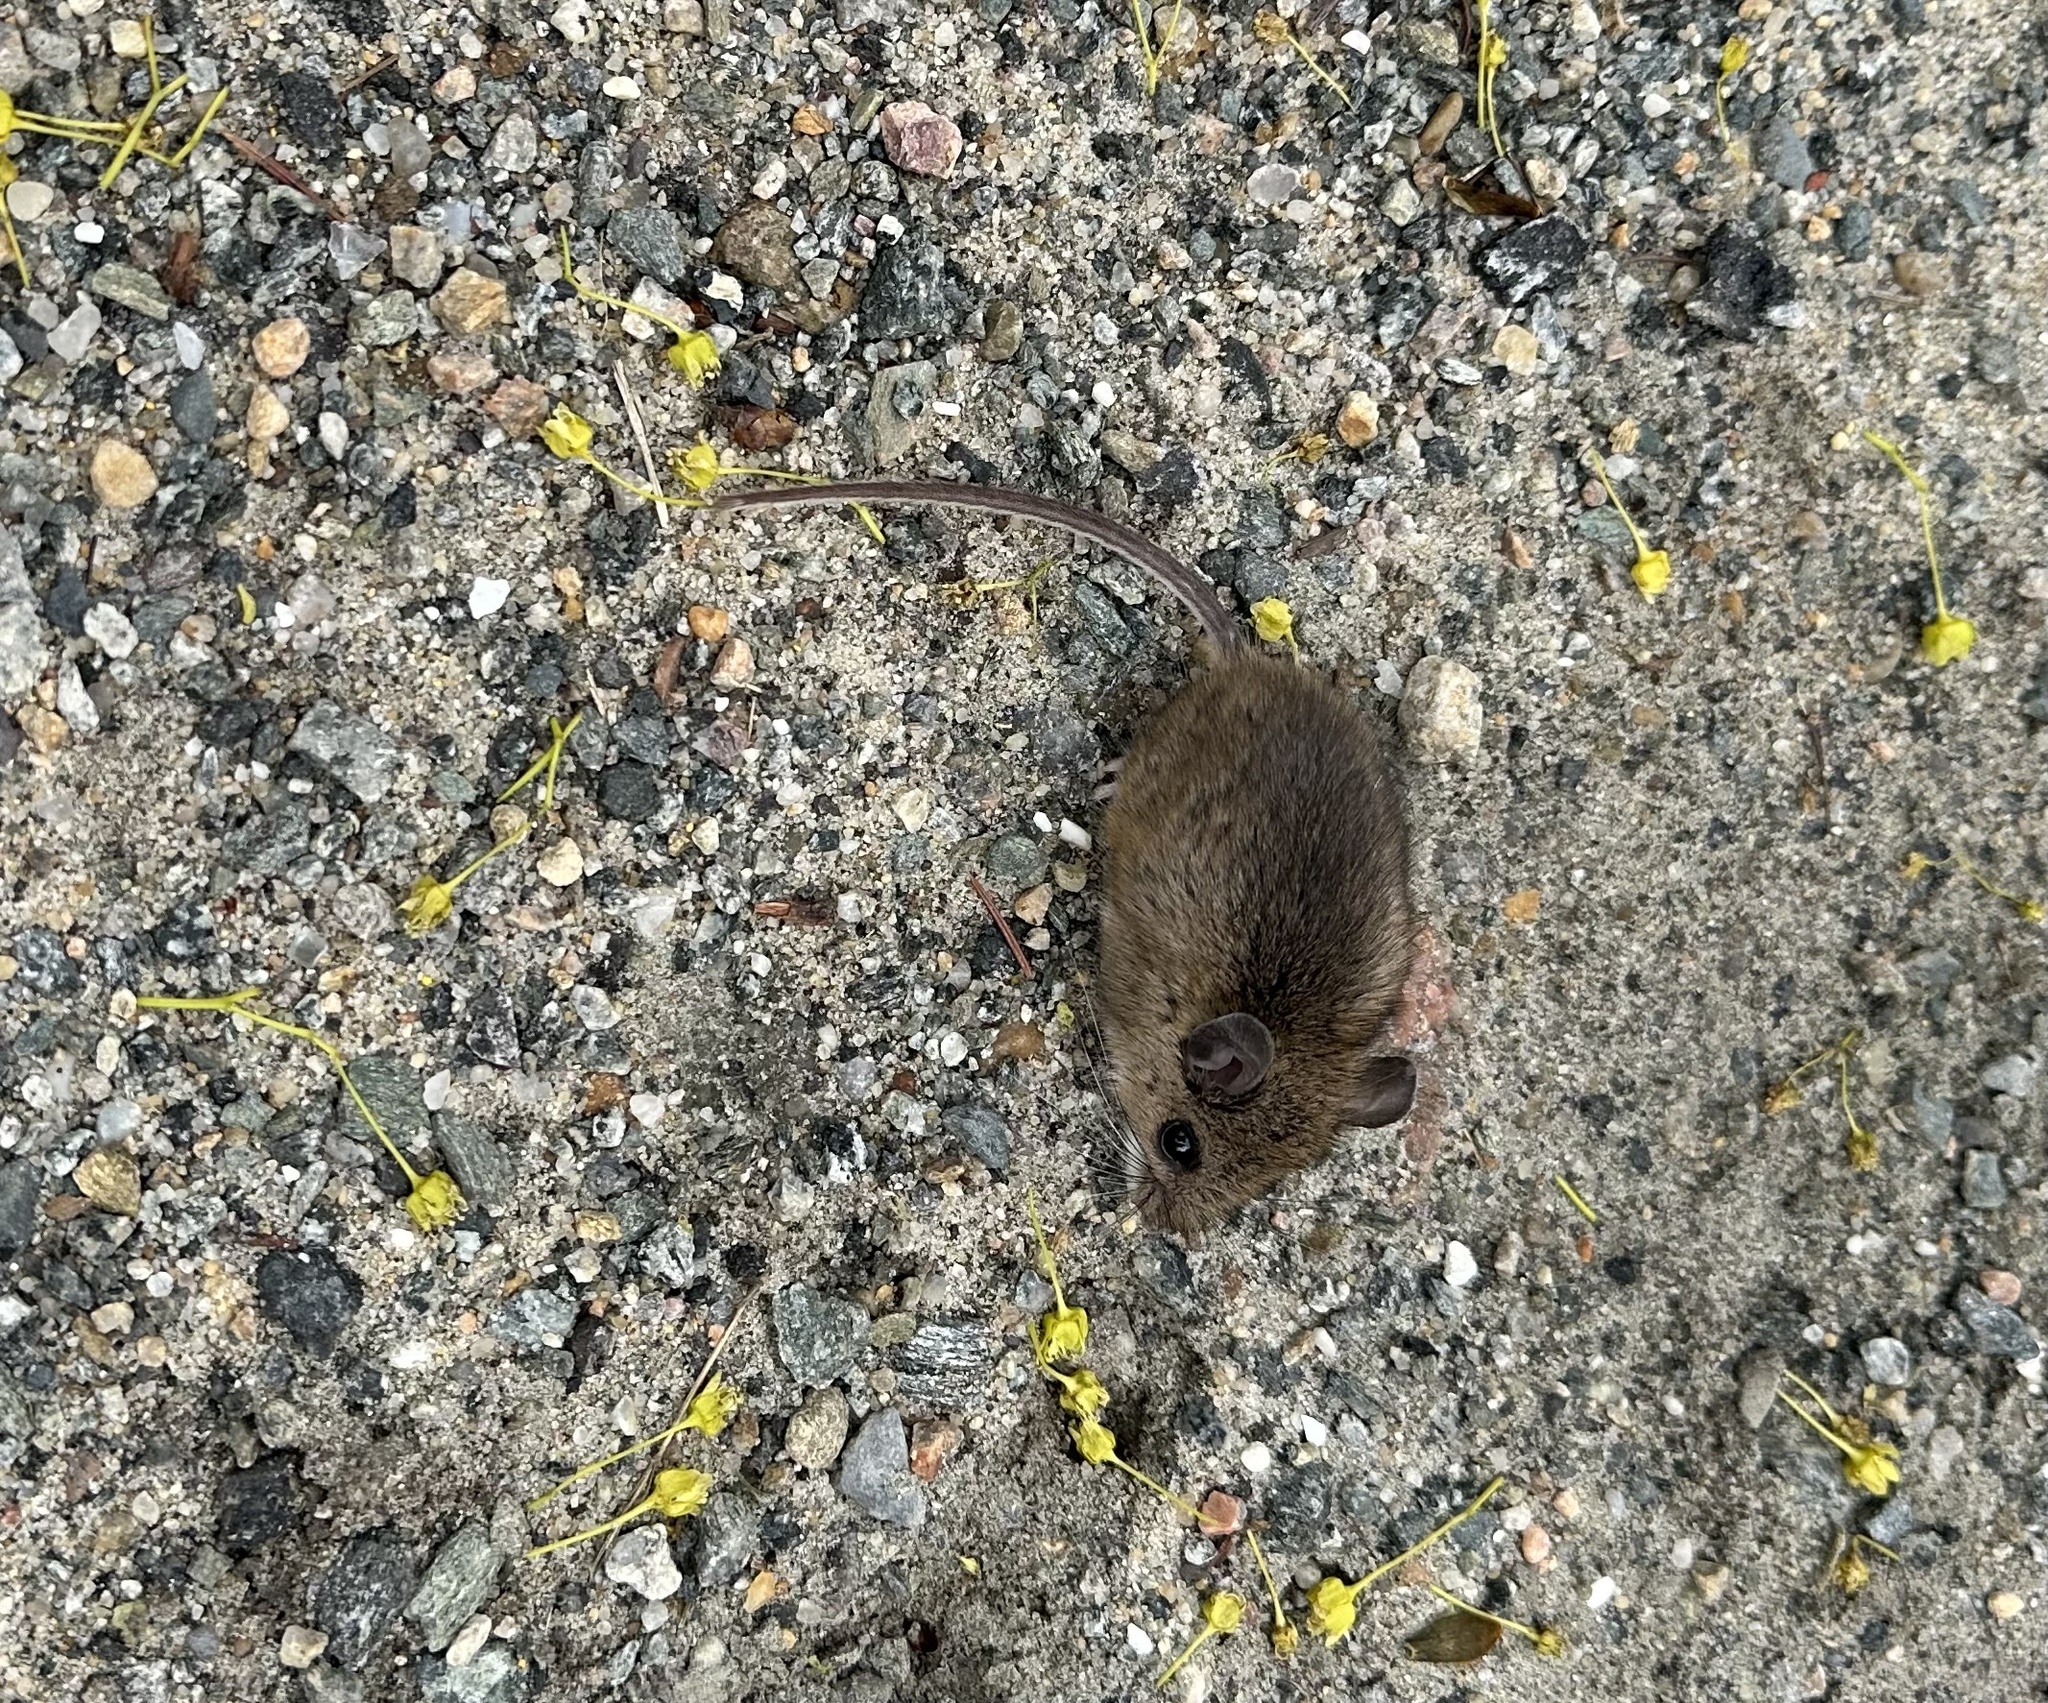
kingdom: Animalia
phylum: Chordata
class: Mammalia
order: Rodentia
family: Cricetidae
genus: Peromyscus
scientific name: Peromyscus leucopus
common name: White-footed deermouse
